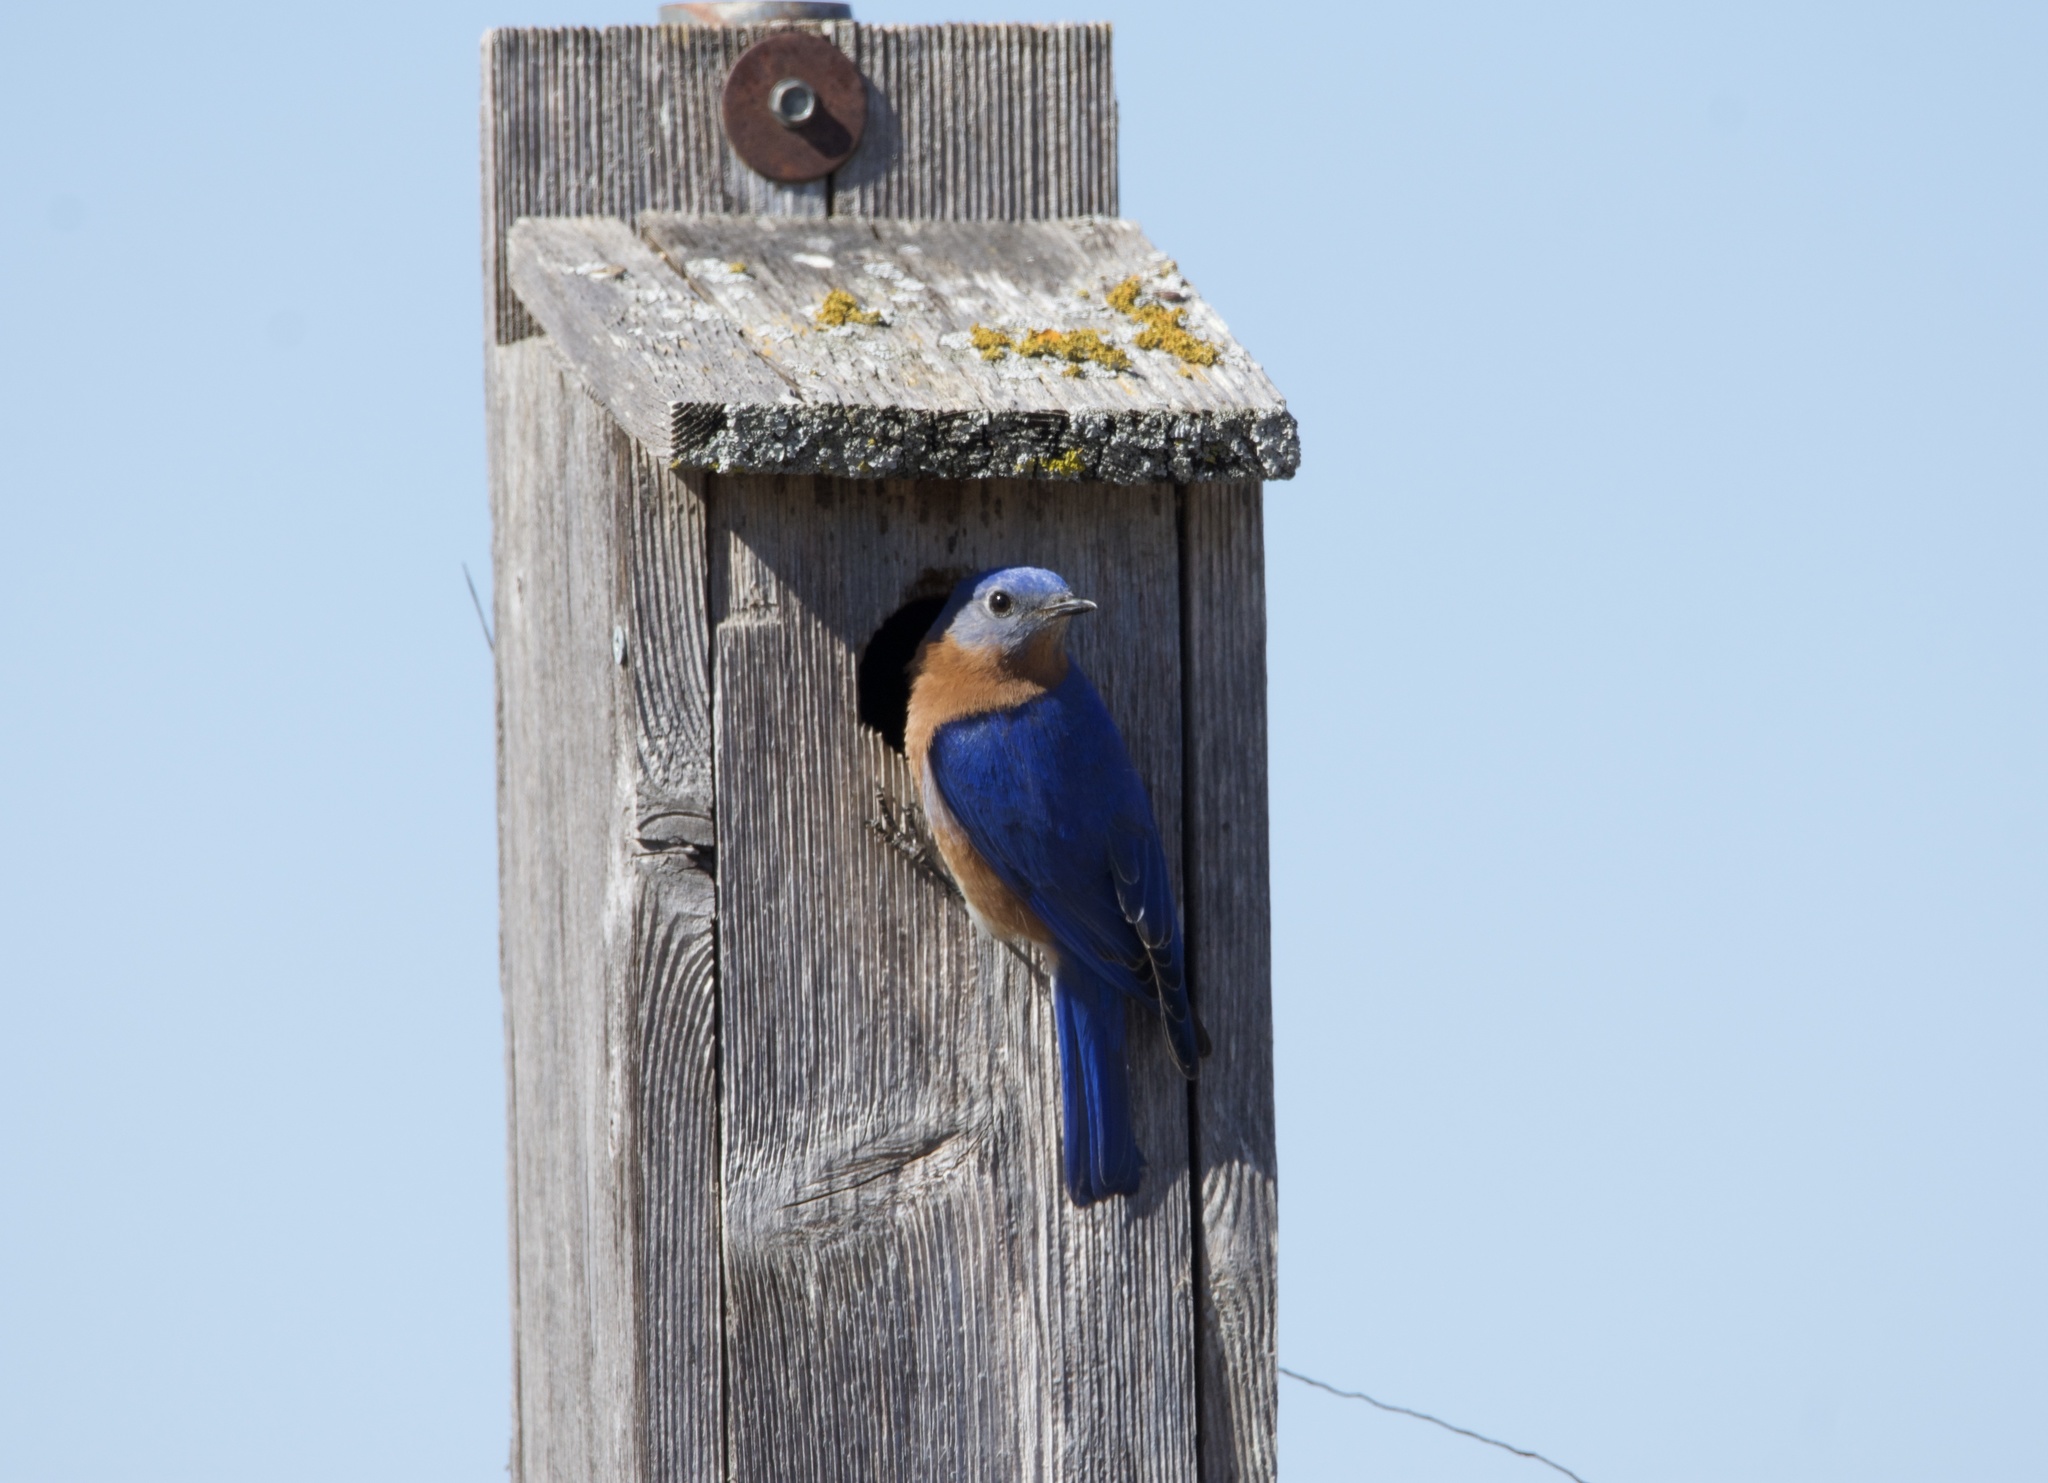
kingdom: Animalia
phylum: Chordata
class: Aves
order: Passeriformes
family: Turdidae
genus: Sialia
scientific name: Sialia sialis
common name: Eastern bluebird
